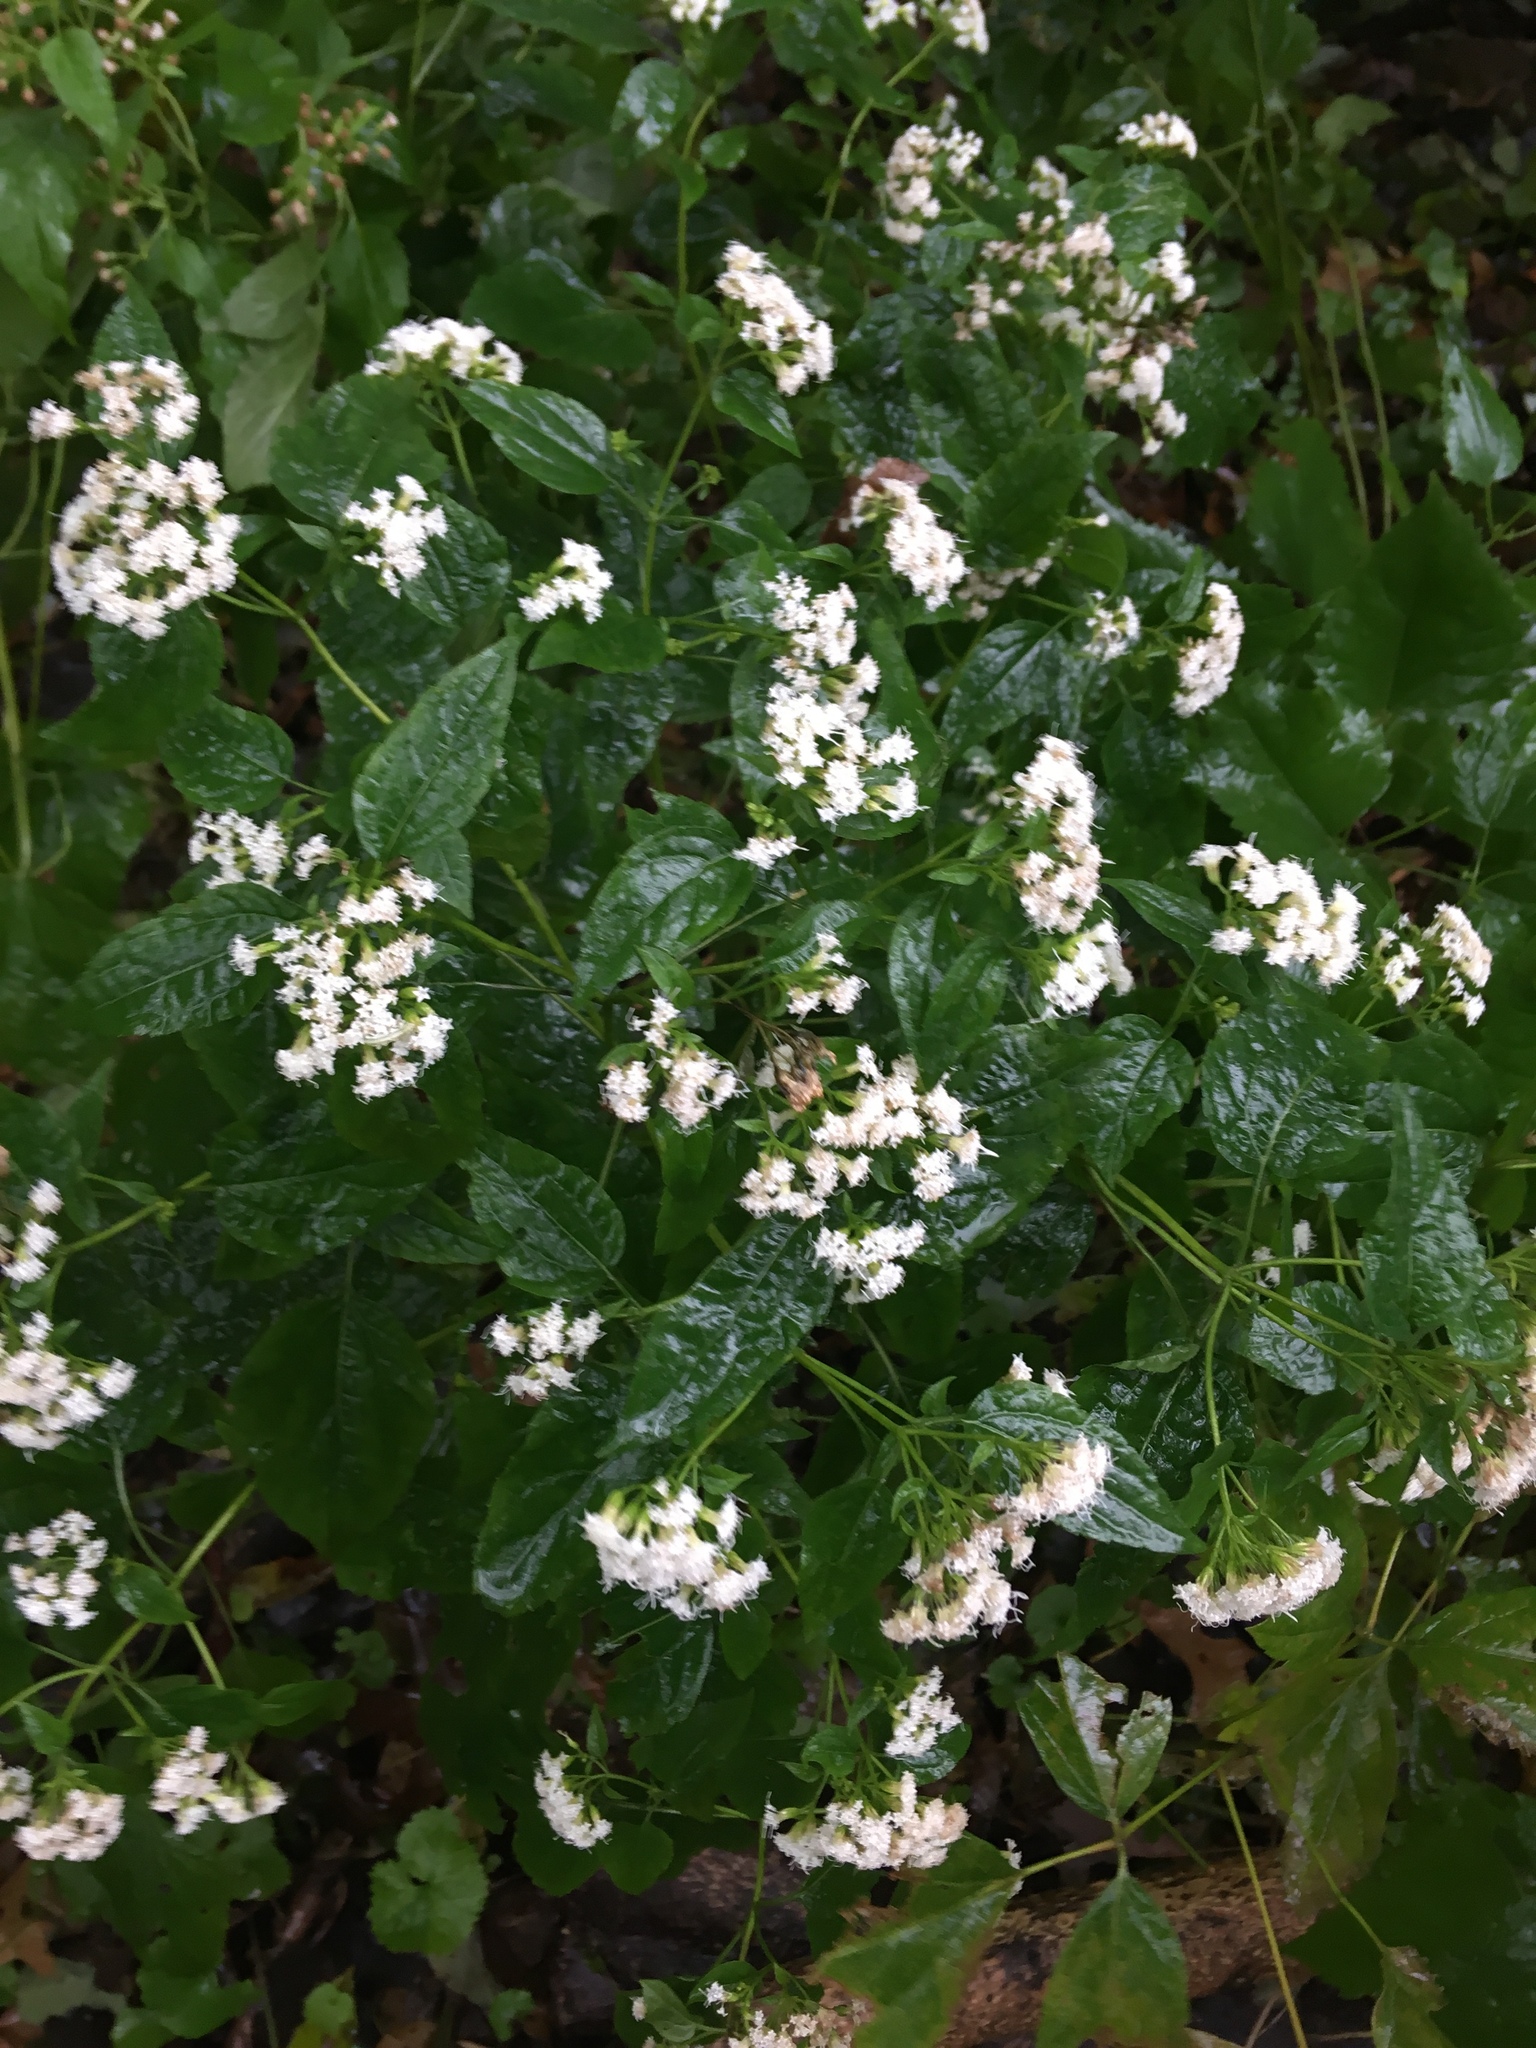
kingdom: Plantae
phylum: Tracheophyta
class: Magnoliopsida
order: Asterales
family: Asteraceae
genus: Ageratina
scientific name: Ageratina altissima
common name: White snakeroot
